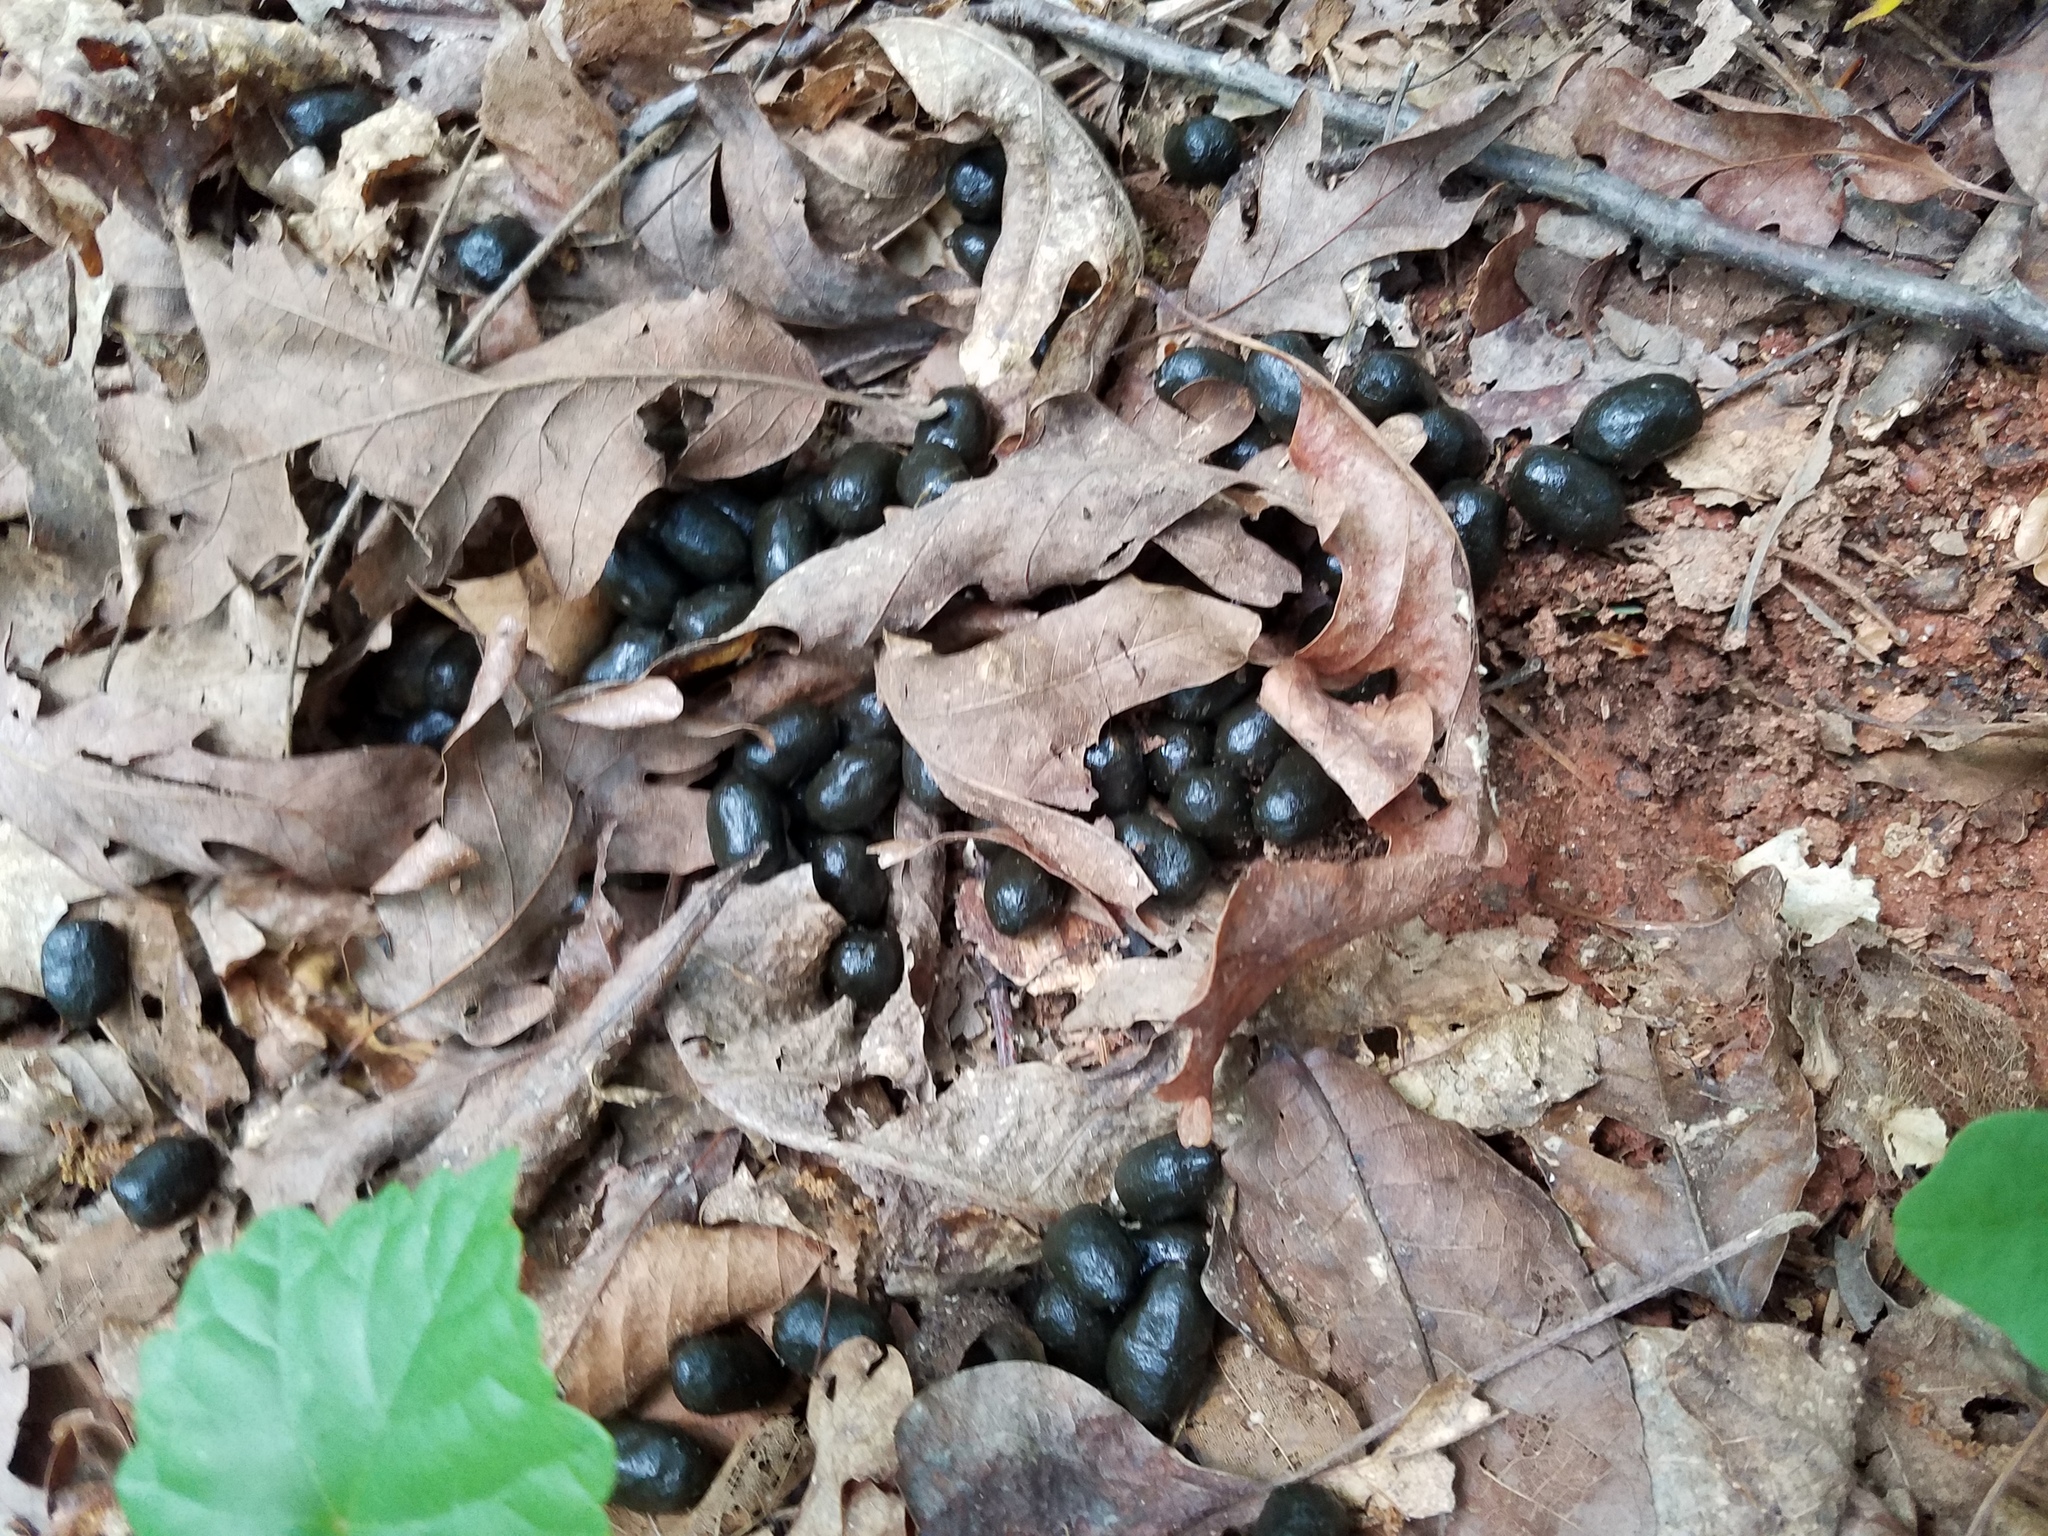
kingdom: Animalia
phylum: Chordata
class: Mammalia
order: Artiodactyla
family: Cervidae
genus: Odocoileus
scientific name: Odocoileus virginianus
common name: White-tailed deer
